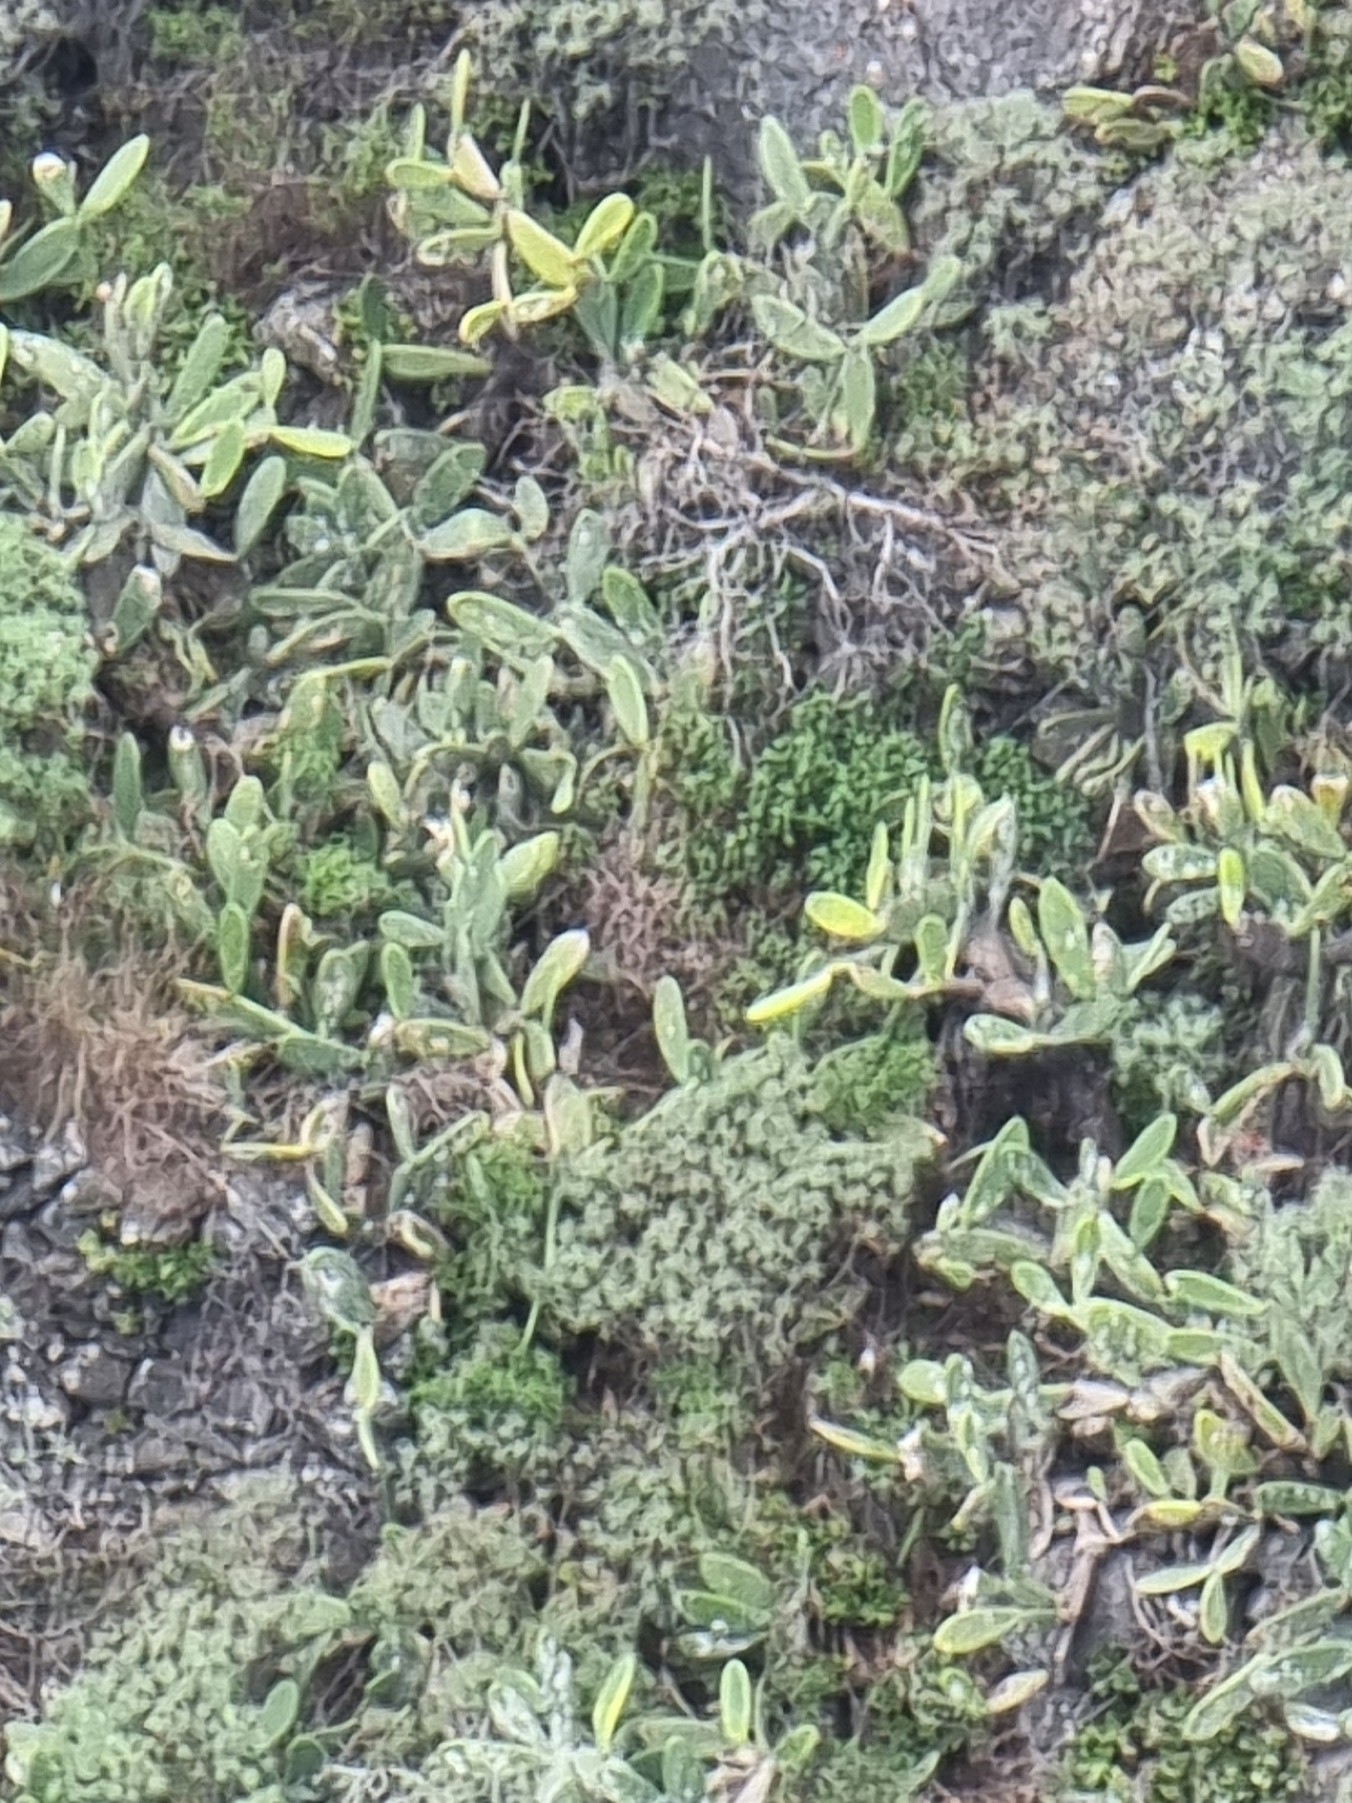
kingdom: Plantae
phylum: Tracheophyta
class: Magnoliopsida
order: Caryophyllales
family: Cactaceae
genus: Opuntia
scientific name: Opuntia ficus-indica
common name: Barbary fig
